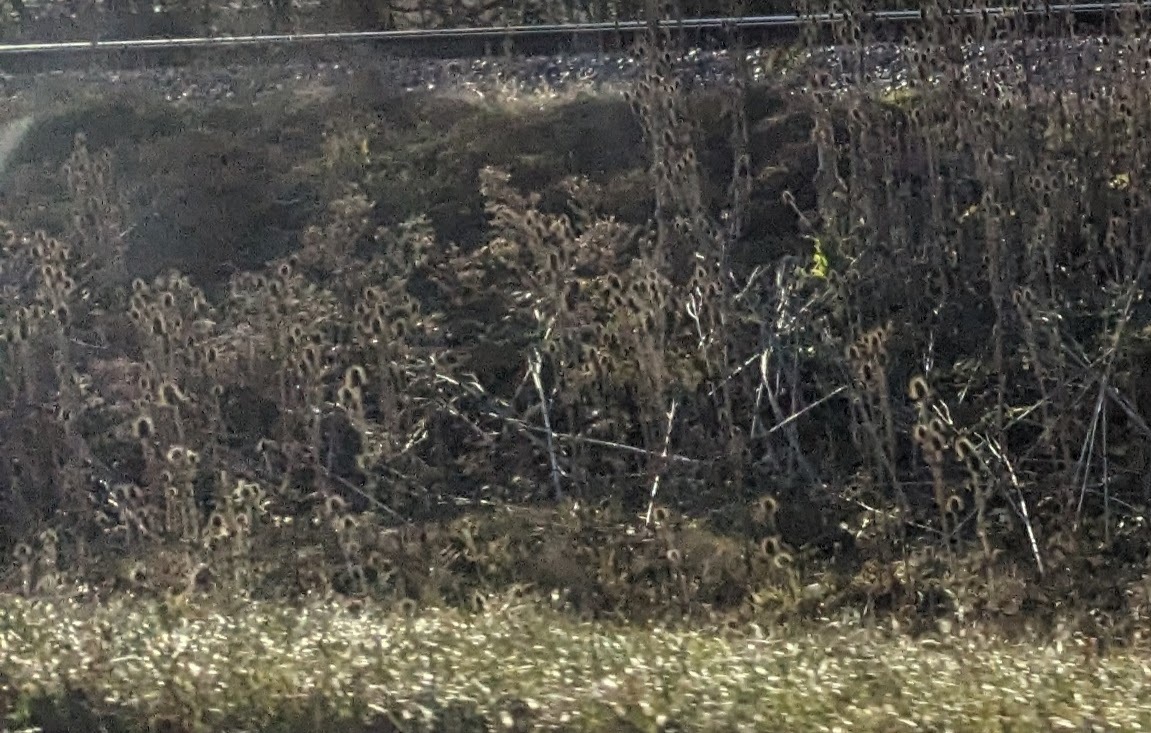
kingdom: Plantae
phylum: Tracheophyta
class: Magnoliopsida
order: Dipsacales
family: Caprifoliaceae
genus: Dipsacus
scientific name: Dipsacus laciniatus
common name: Cut-leaved teasel
